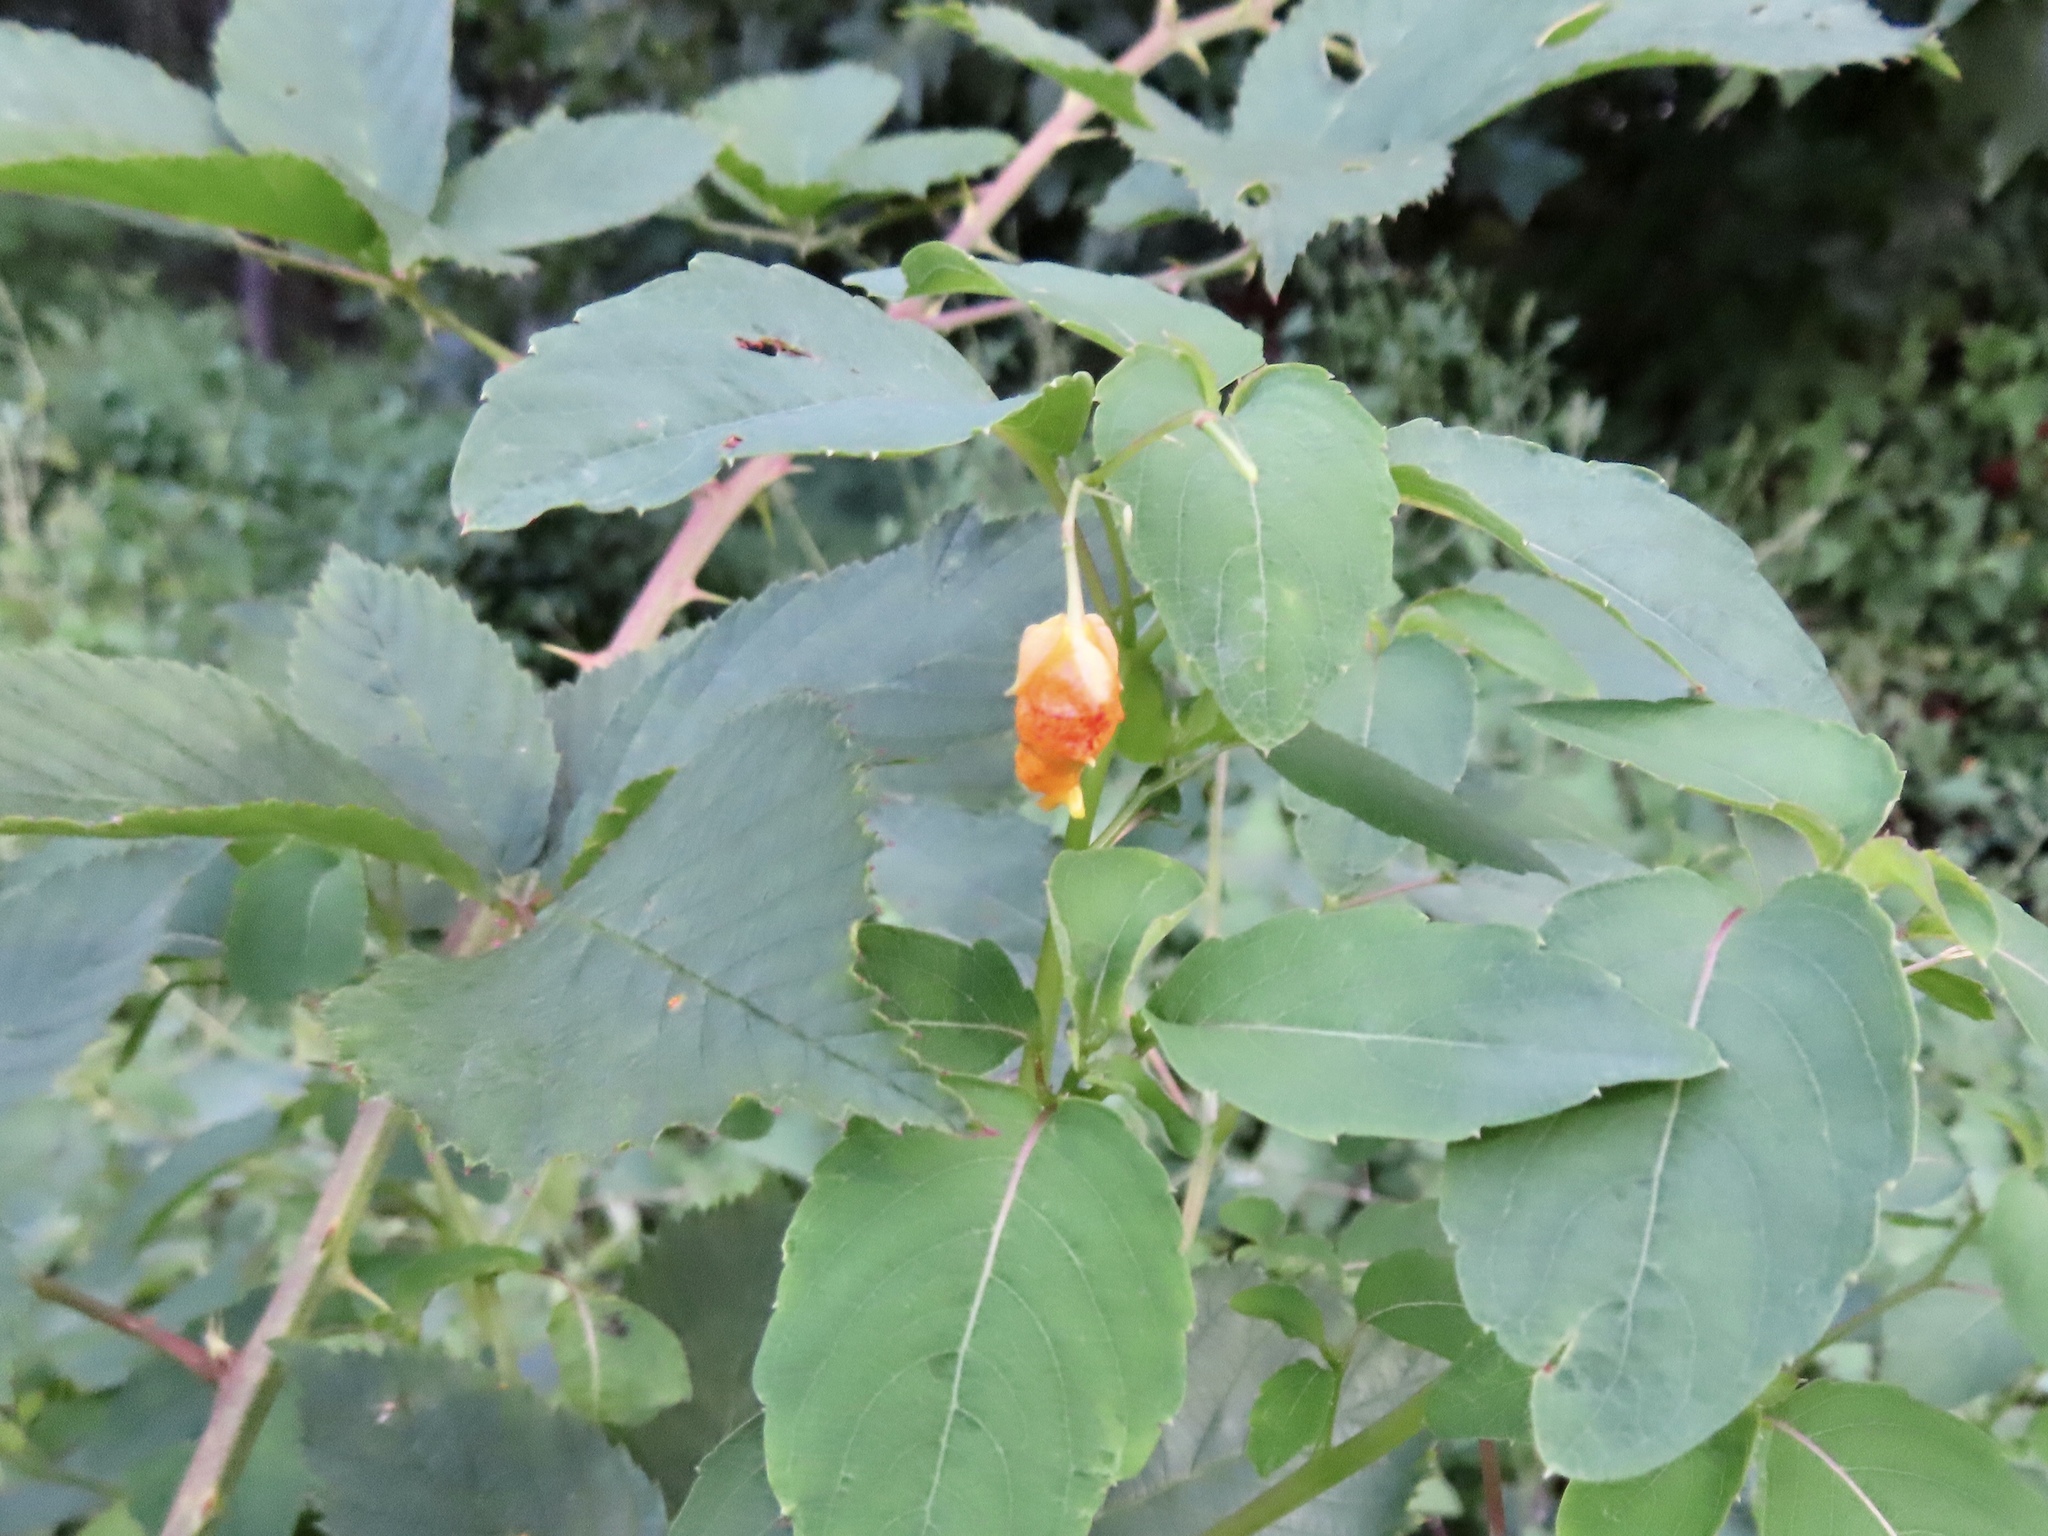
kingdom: Plantae
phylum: Tracheophyta
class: Magnoliopsida
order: Ericales
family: Balsaminaceae
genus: Impatiens
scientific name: Impatiens capensis
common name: Orange balsam
